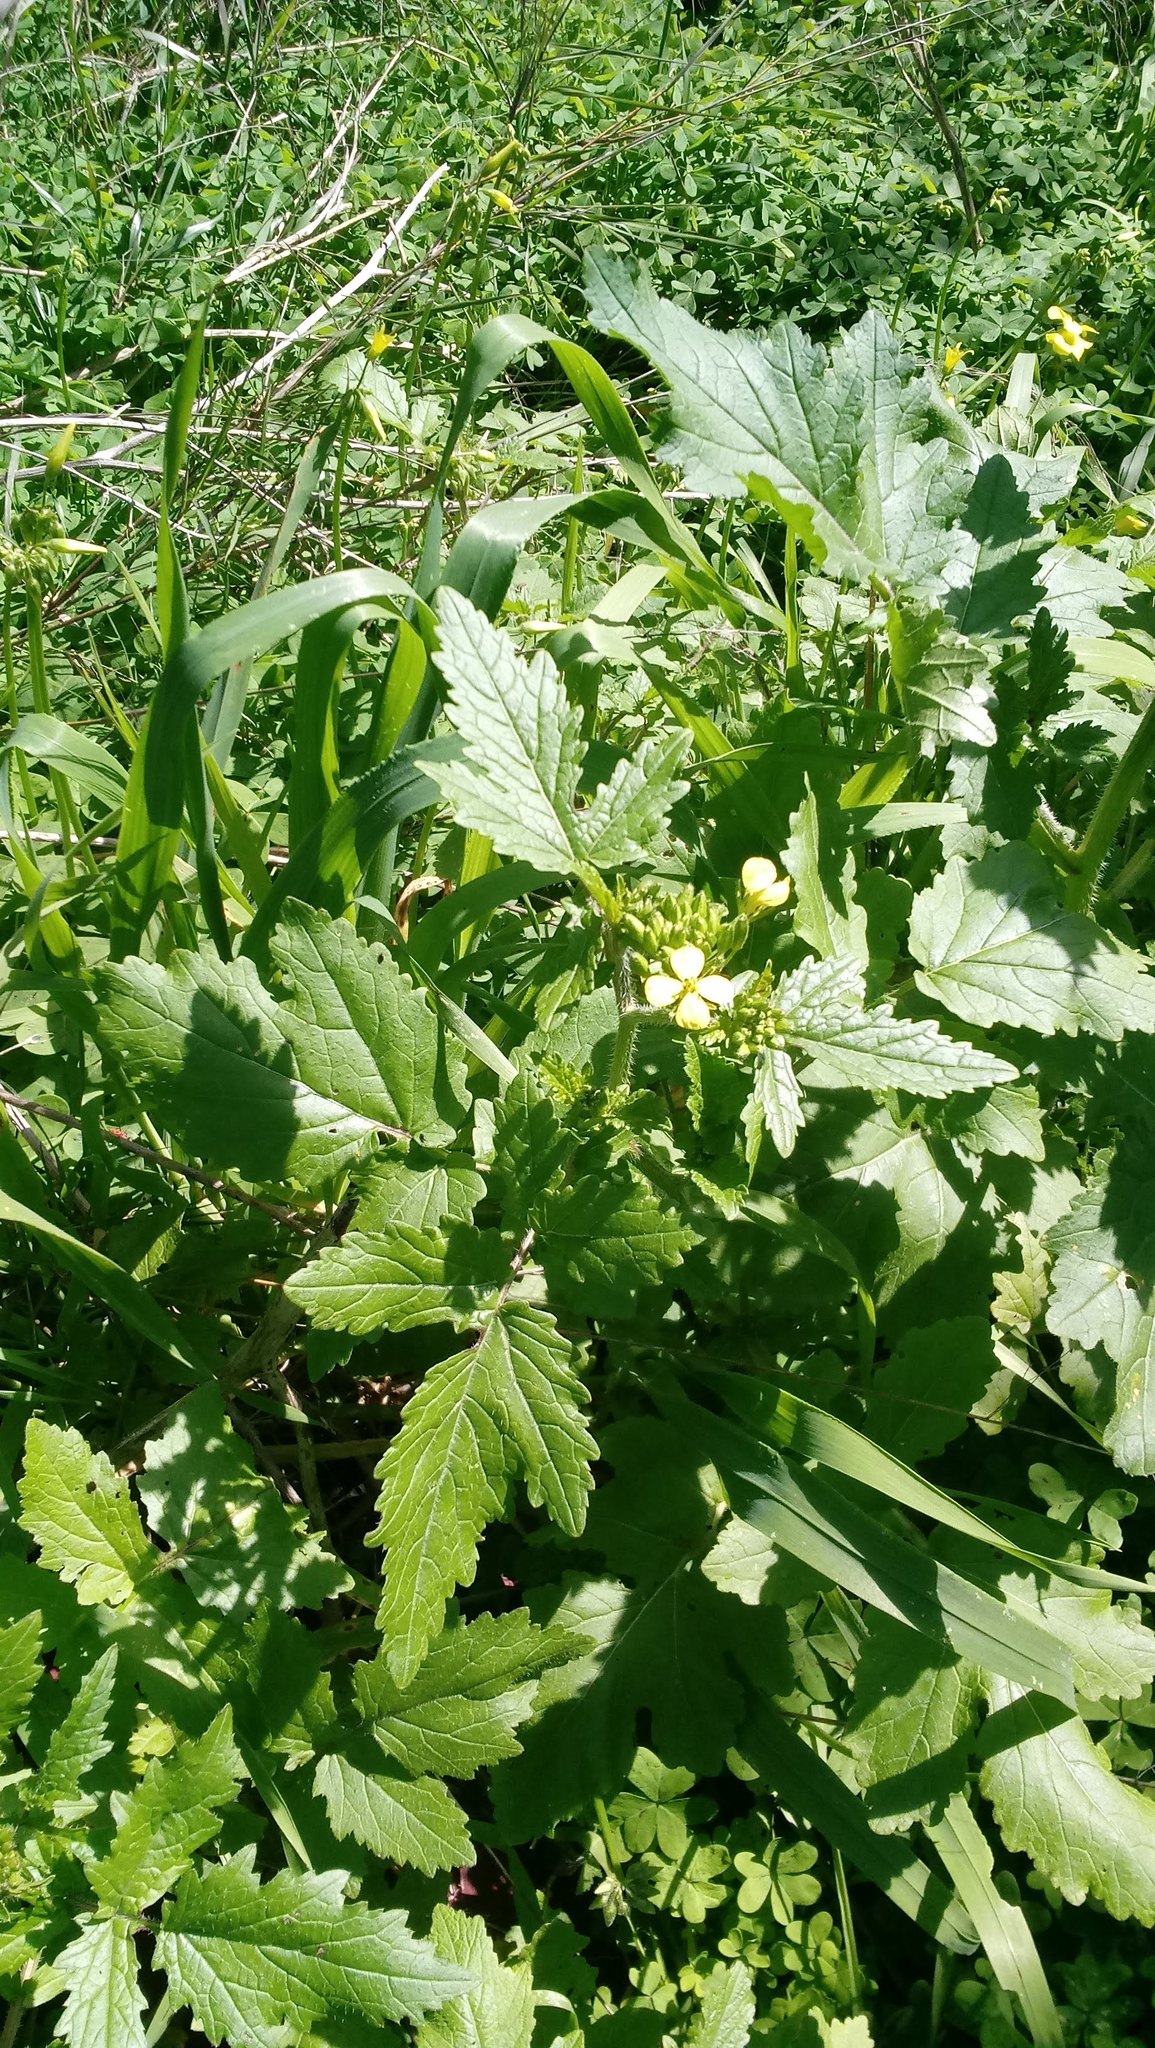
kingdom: Plantae
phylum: Tracheophyta
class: Magnoliopsida
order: Brassicales
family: Brassicaceae
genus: Sinapis
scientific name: Sinapis
